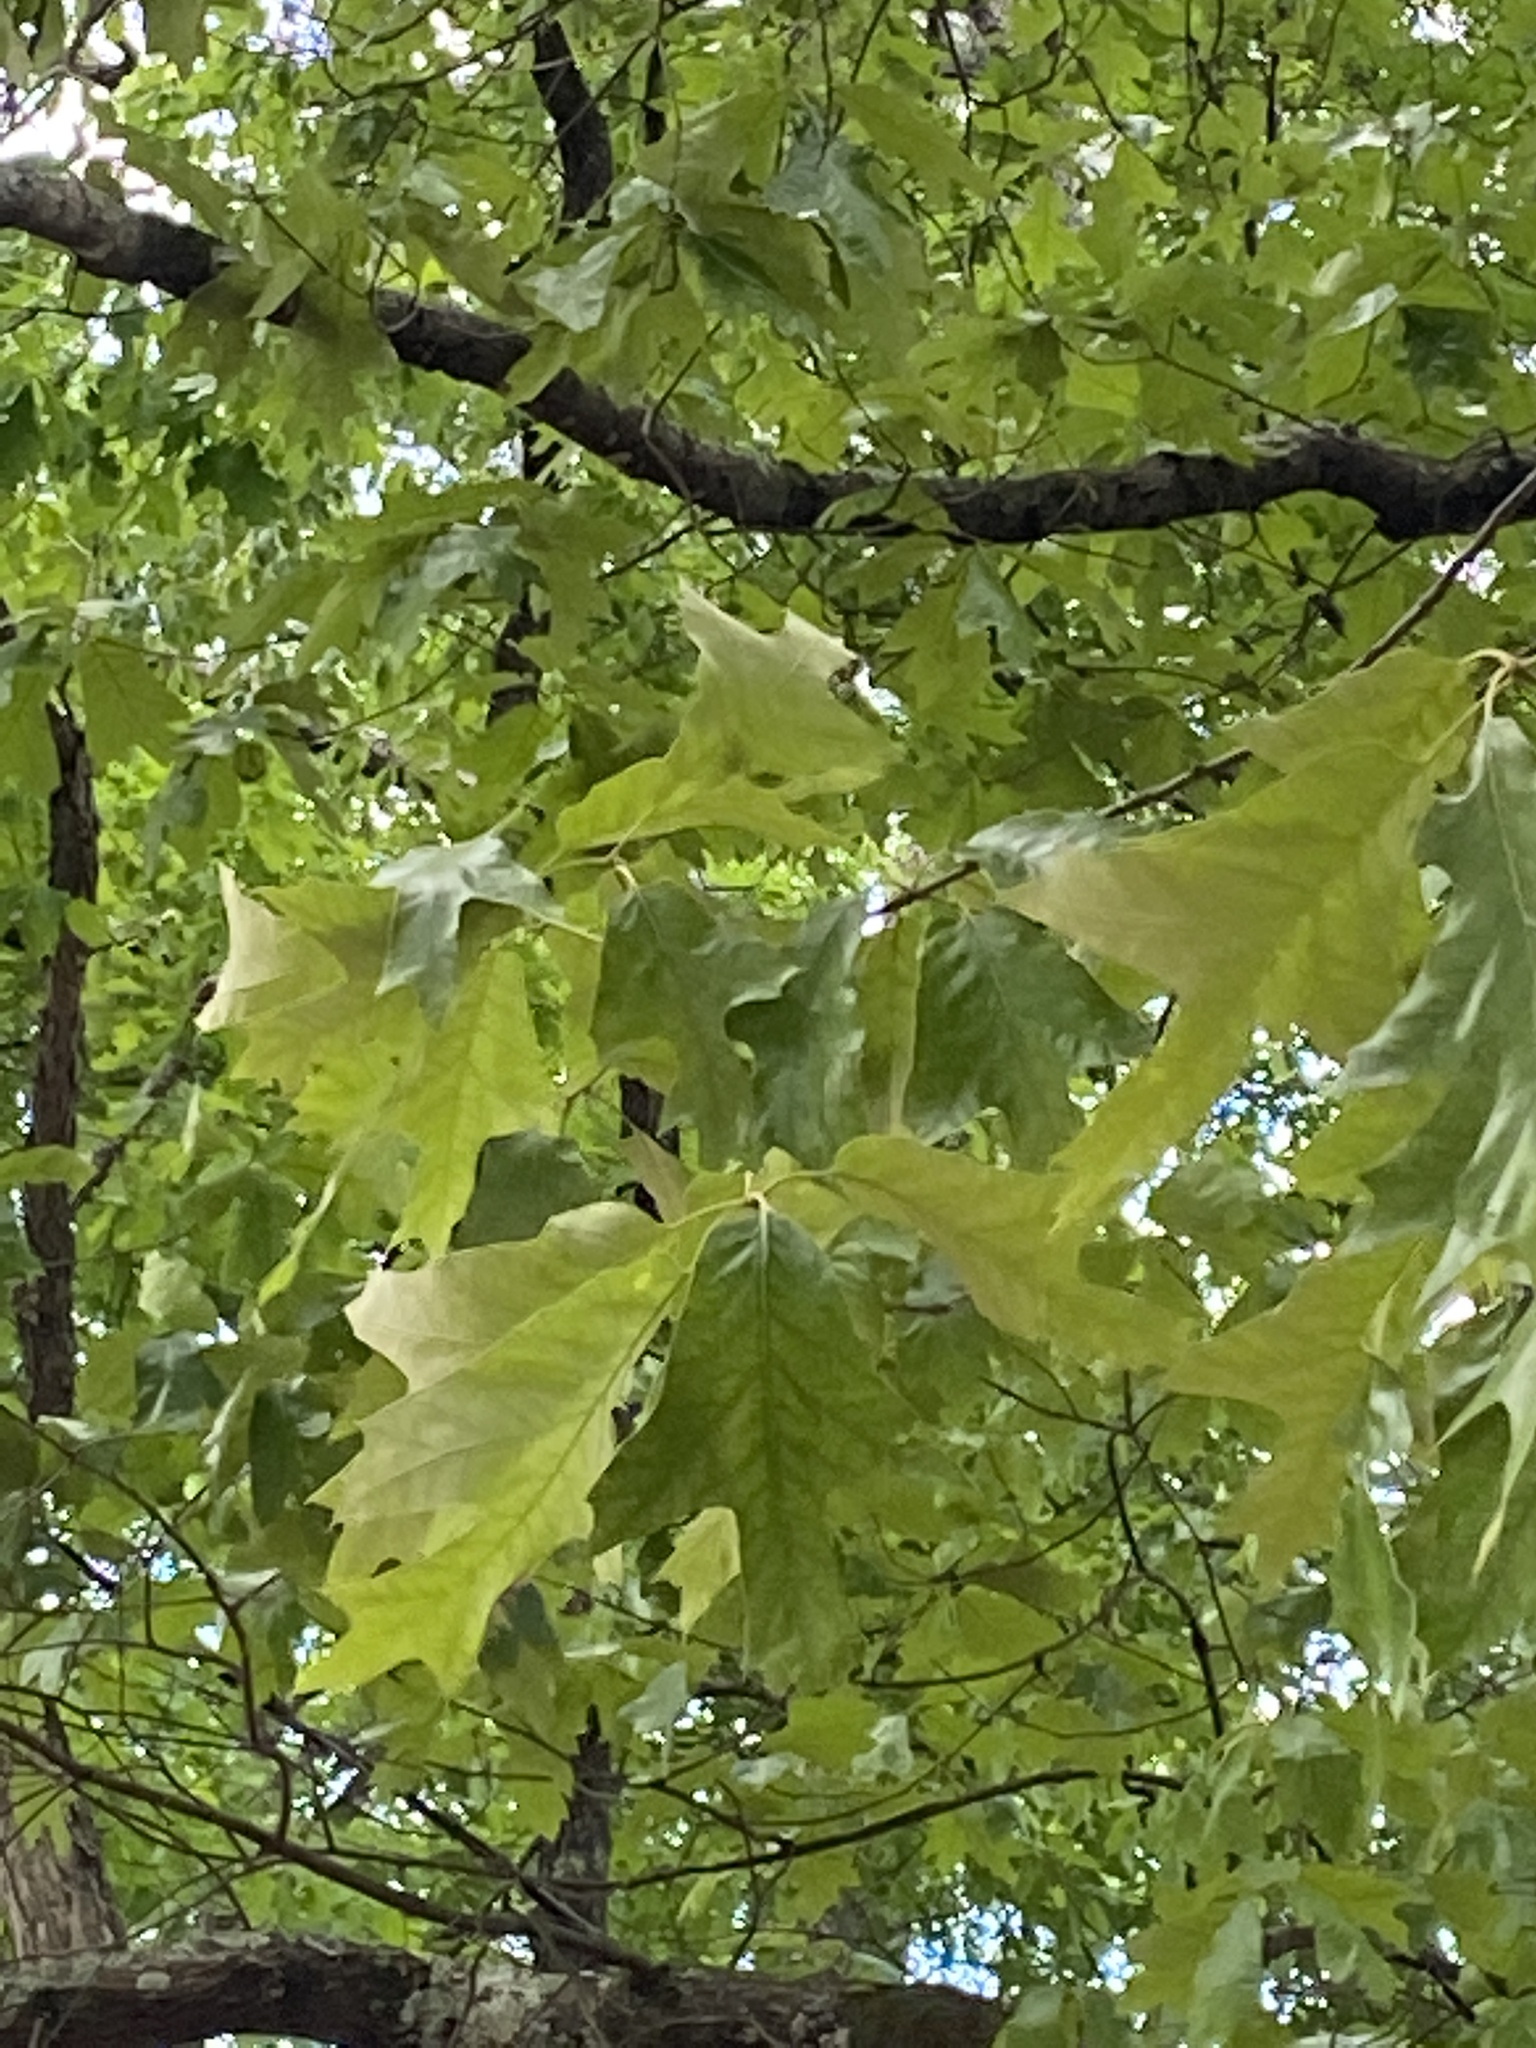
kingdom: Plantae
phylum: Tracheophyta
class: Magnoliopsida
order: Fagales
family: Fagaceae
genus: Quercus
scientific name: Quercus falcata
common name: Southern red oak
